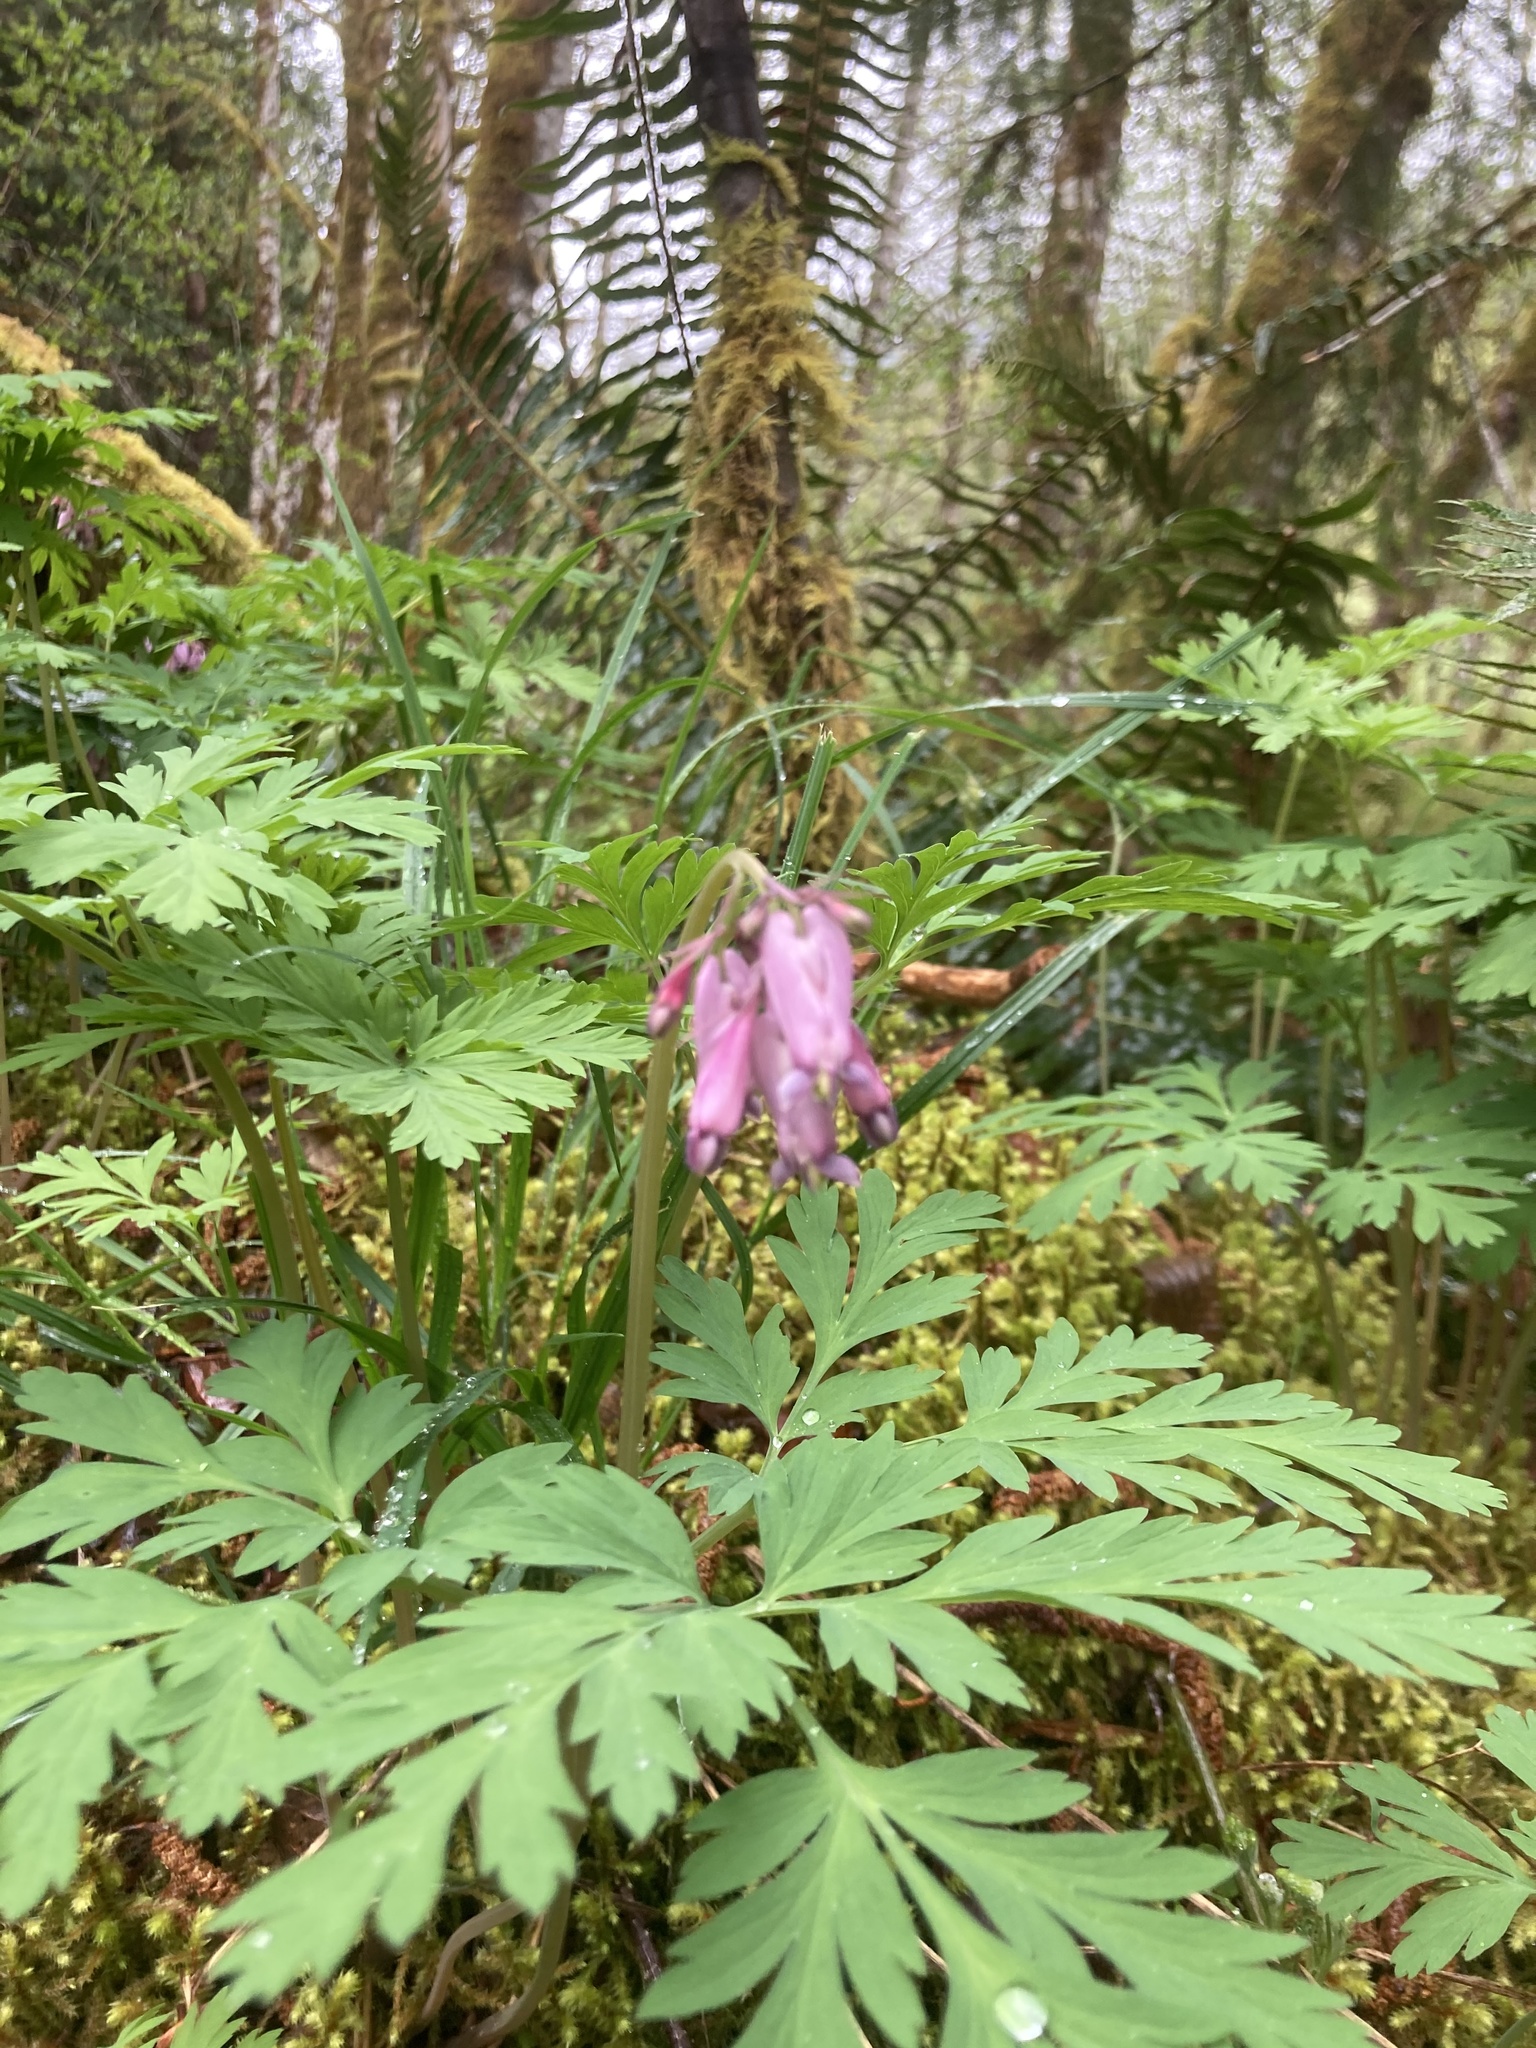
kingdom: Plantae
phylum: Tracheophyta
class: Magnoliopsida
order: Ranunculales
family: Papaveraceae
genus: Dicentra
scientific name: Dicentra formosa
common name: Bleeding-heart
